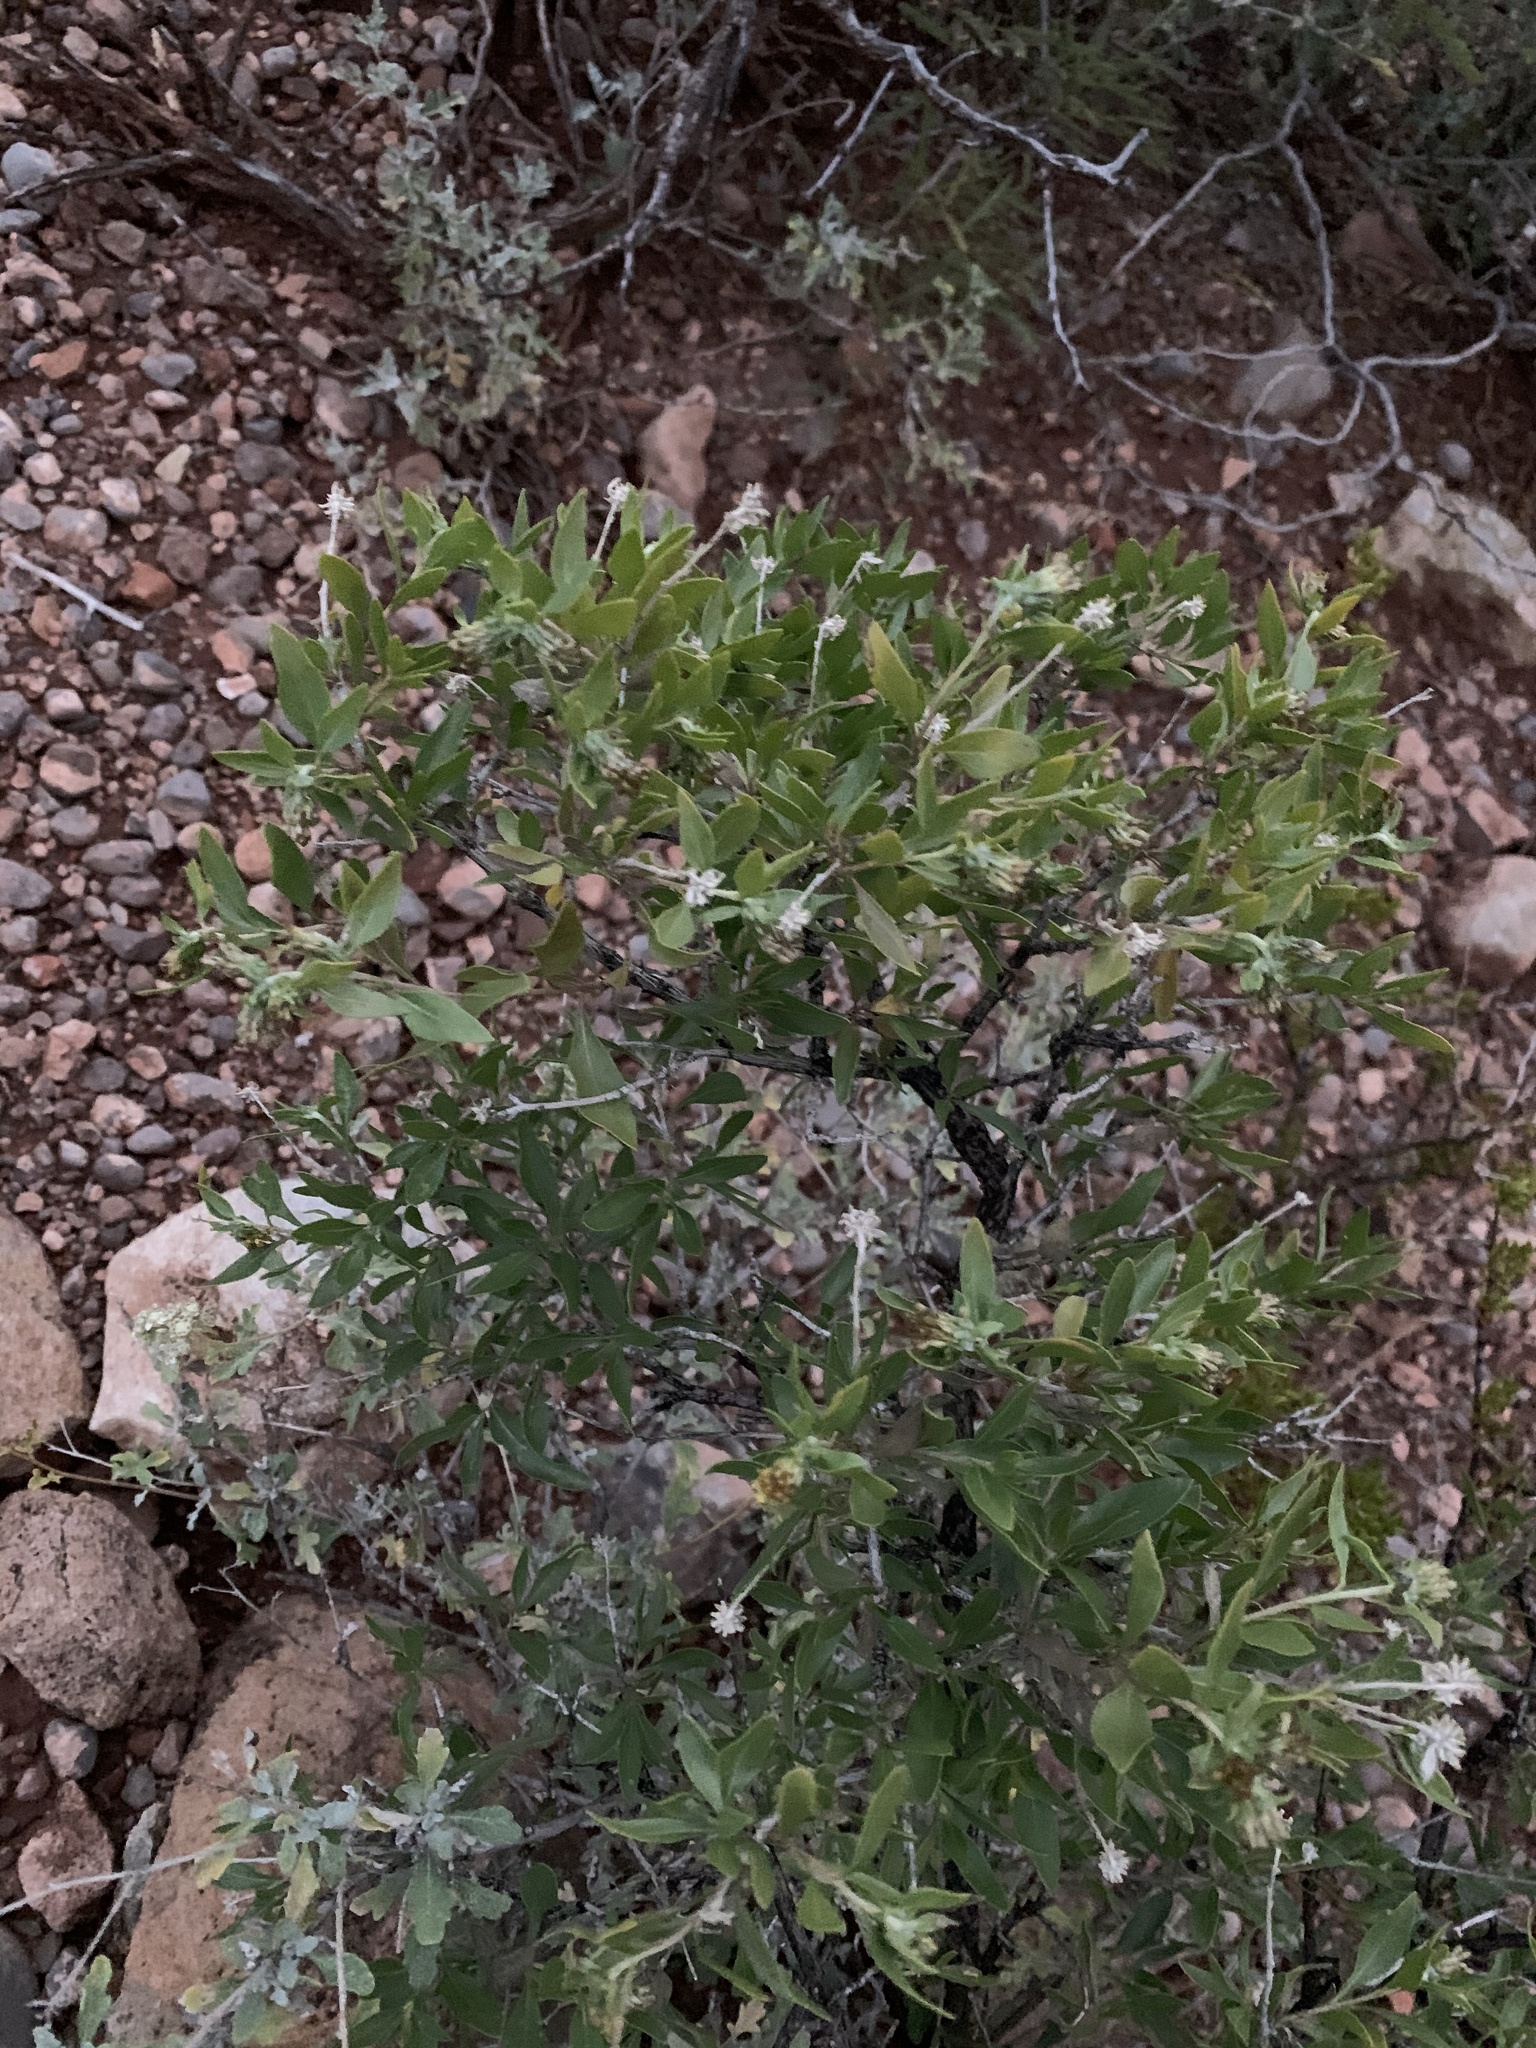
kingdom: Plantae
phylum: Tracheophyta
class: Magnoliopsida
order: Asterales
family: Asteraceae
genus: Flourensia
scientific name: Flourensia cernua
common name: Varnishbush
